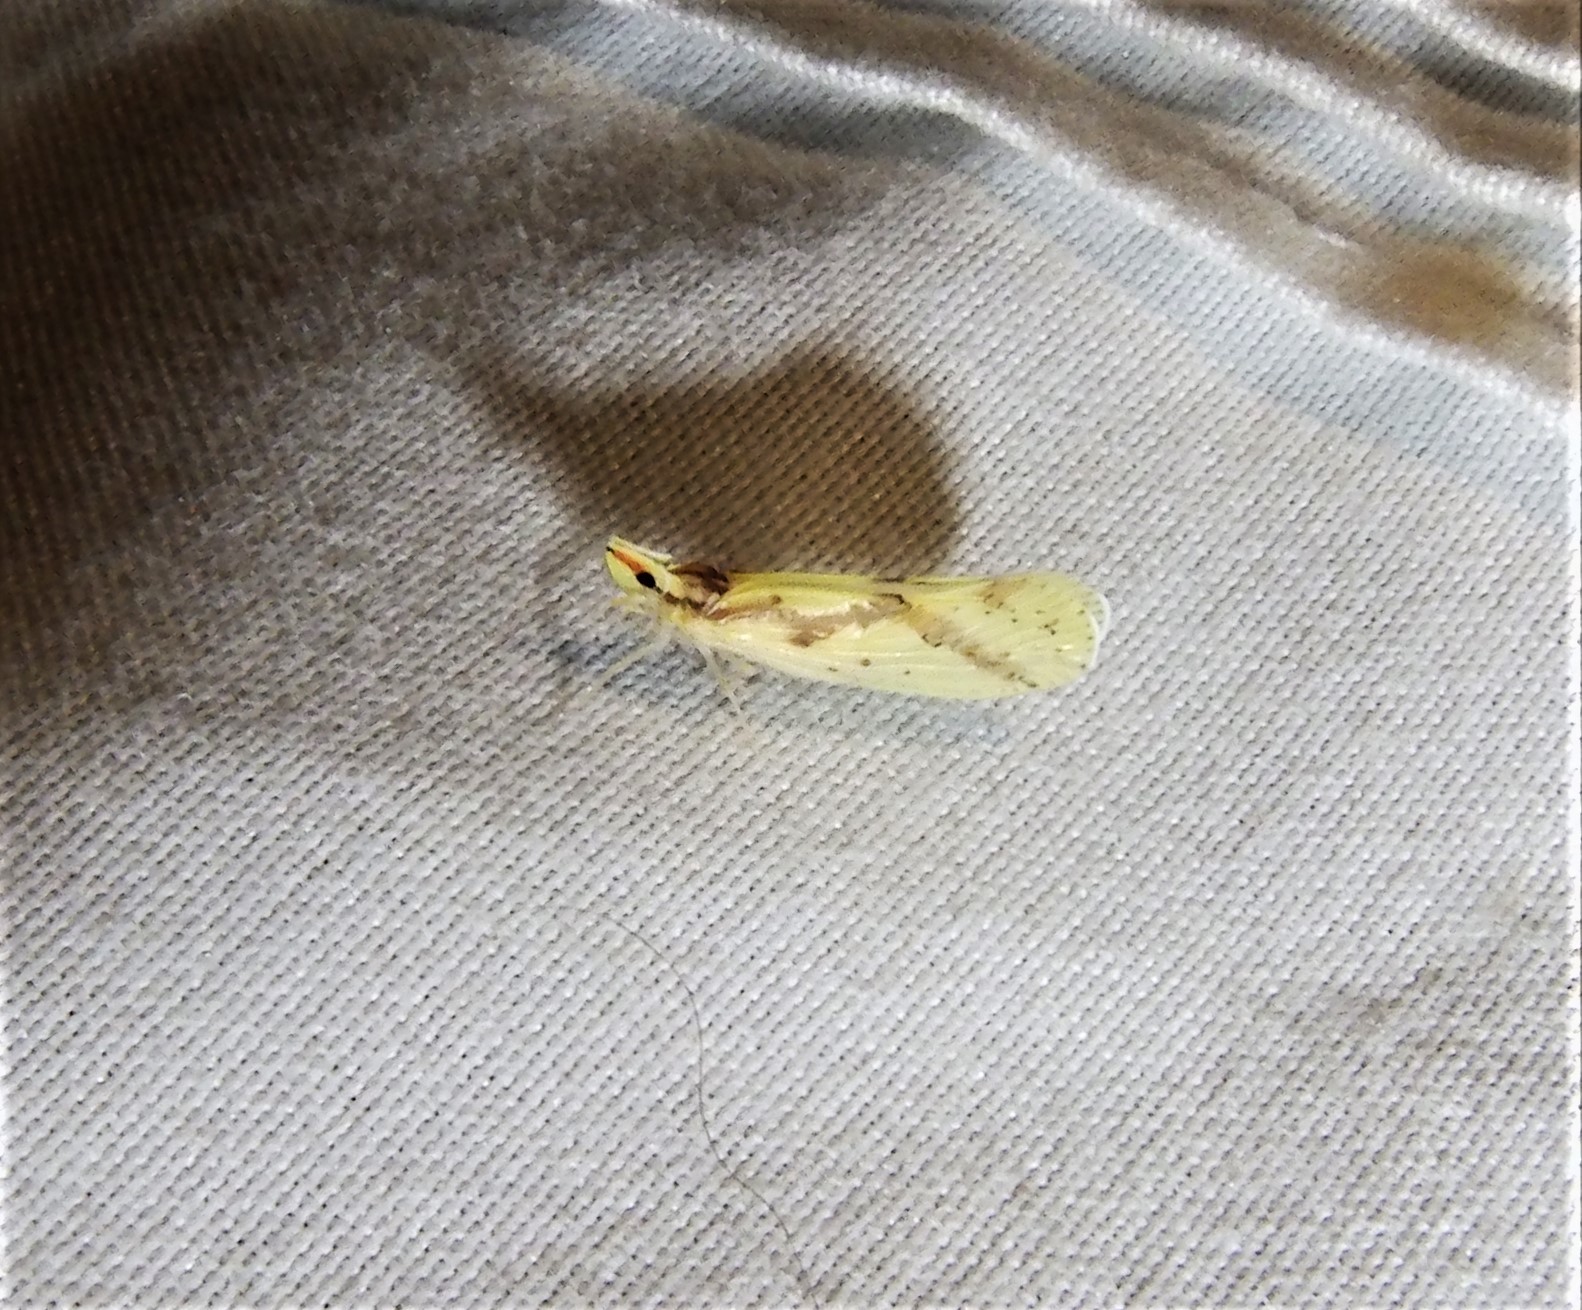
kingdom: Animalia
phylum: Arthropoda
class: Insecta
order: Hemiptera
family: Derbidae
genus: Otiocerus
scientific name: Otiocerus wolfii
